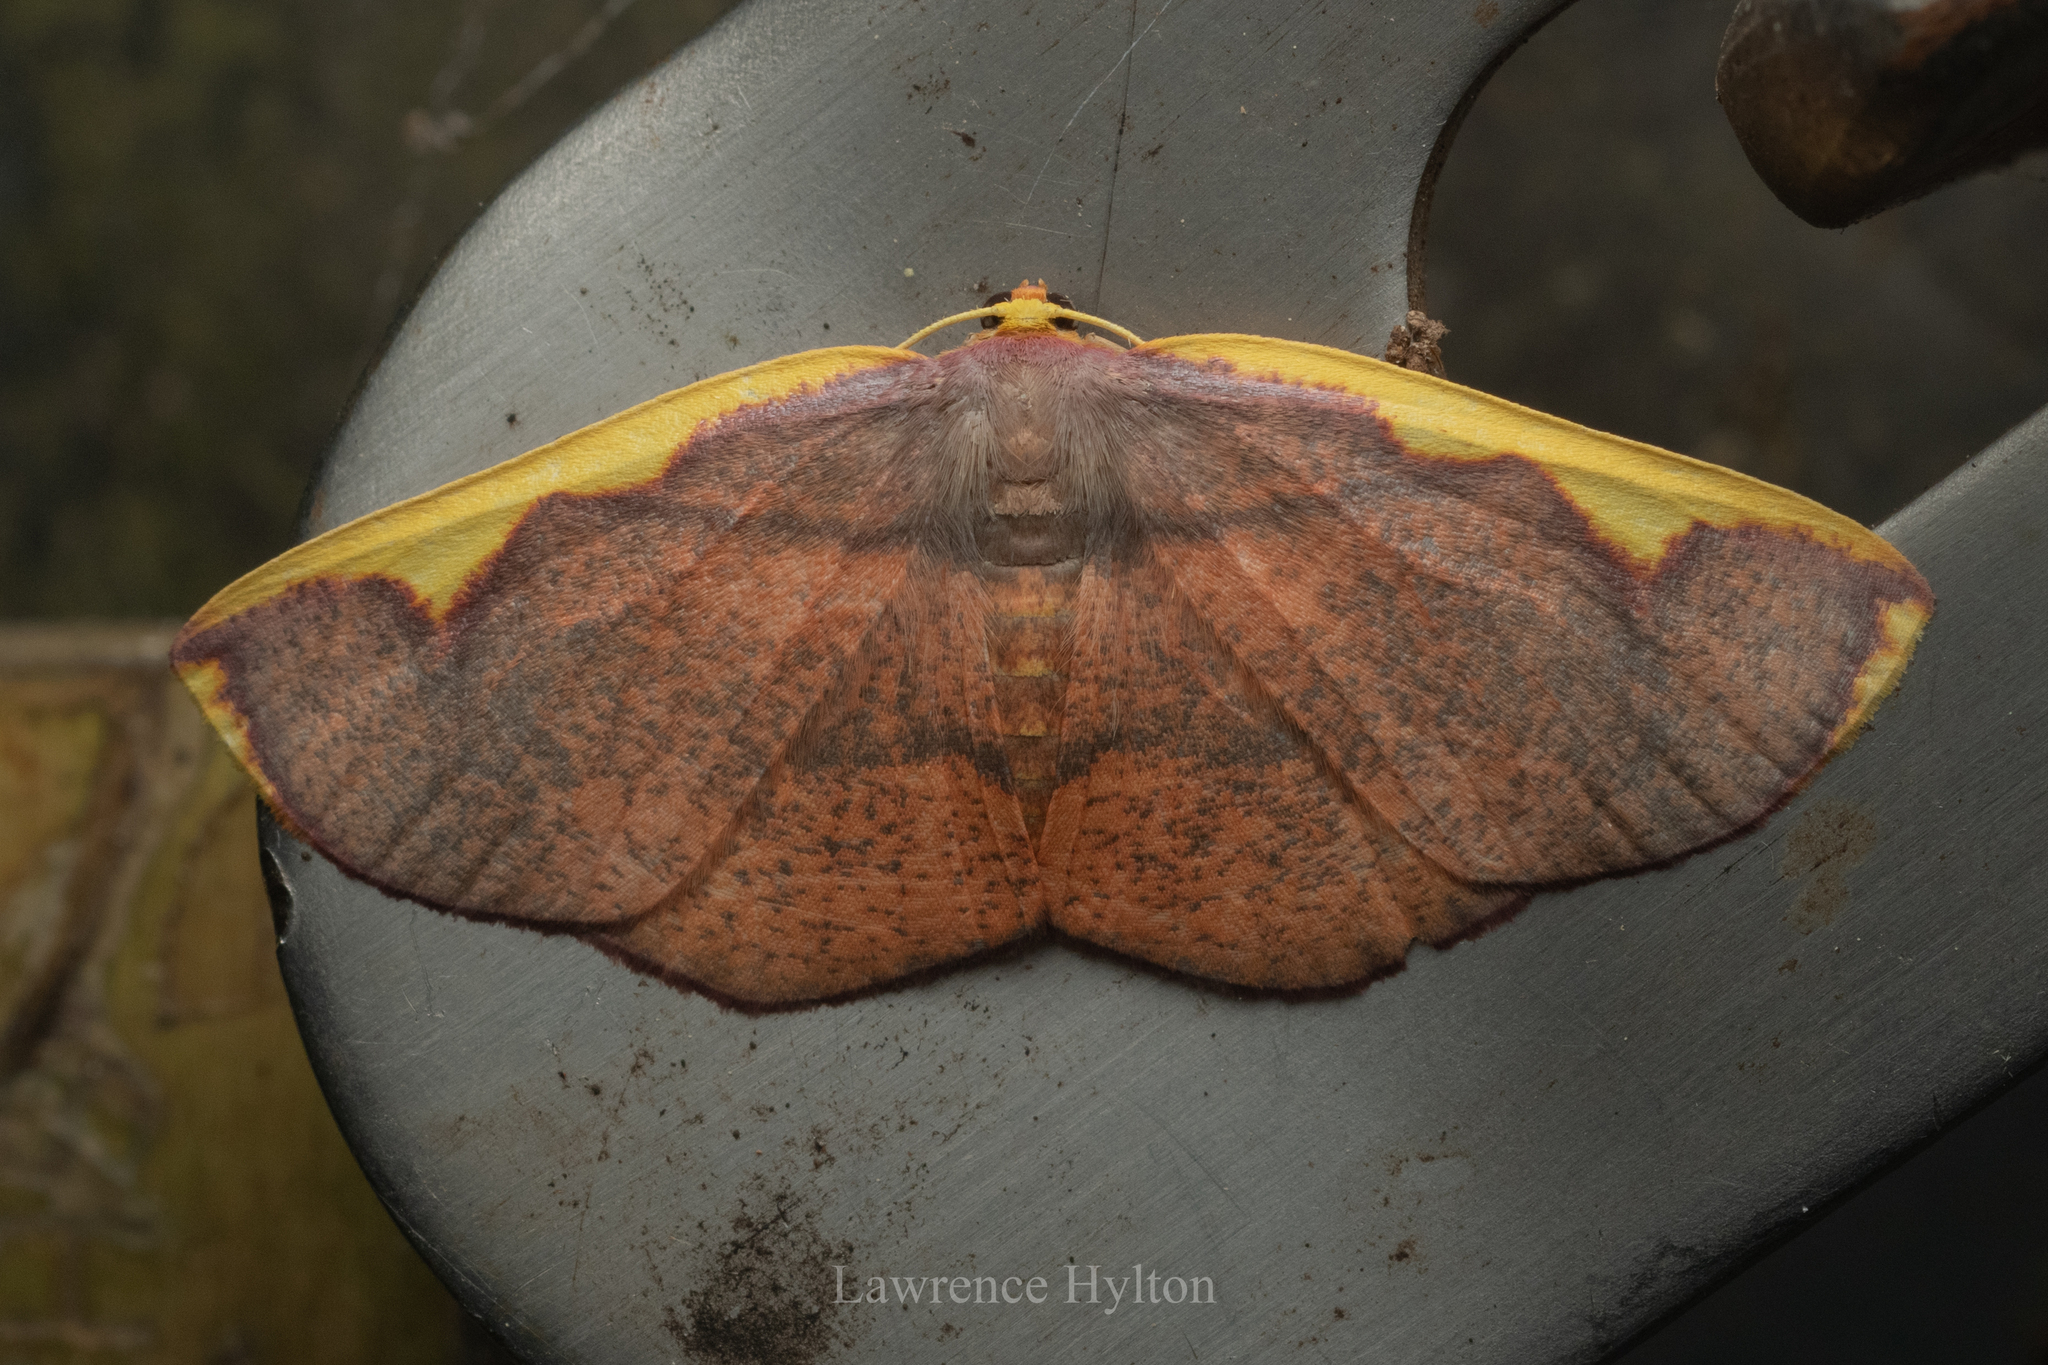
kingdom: Animalia
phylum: Arthropoda
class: Insecta
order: Lepidoptera
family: Geometridae
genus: Nothomiza
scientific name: Nothomiza flavicosta
